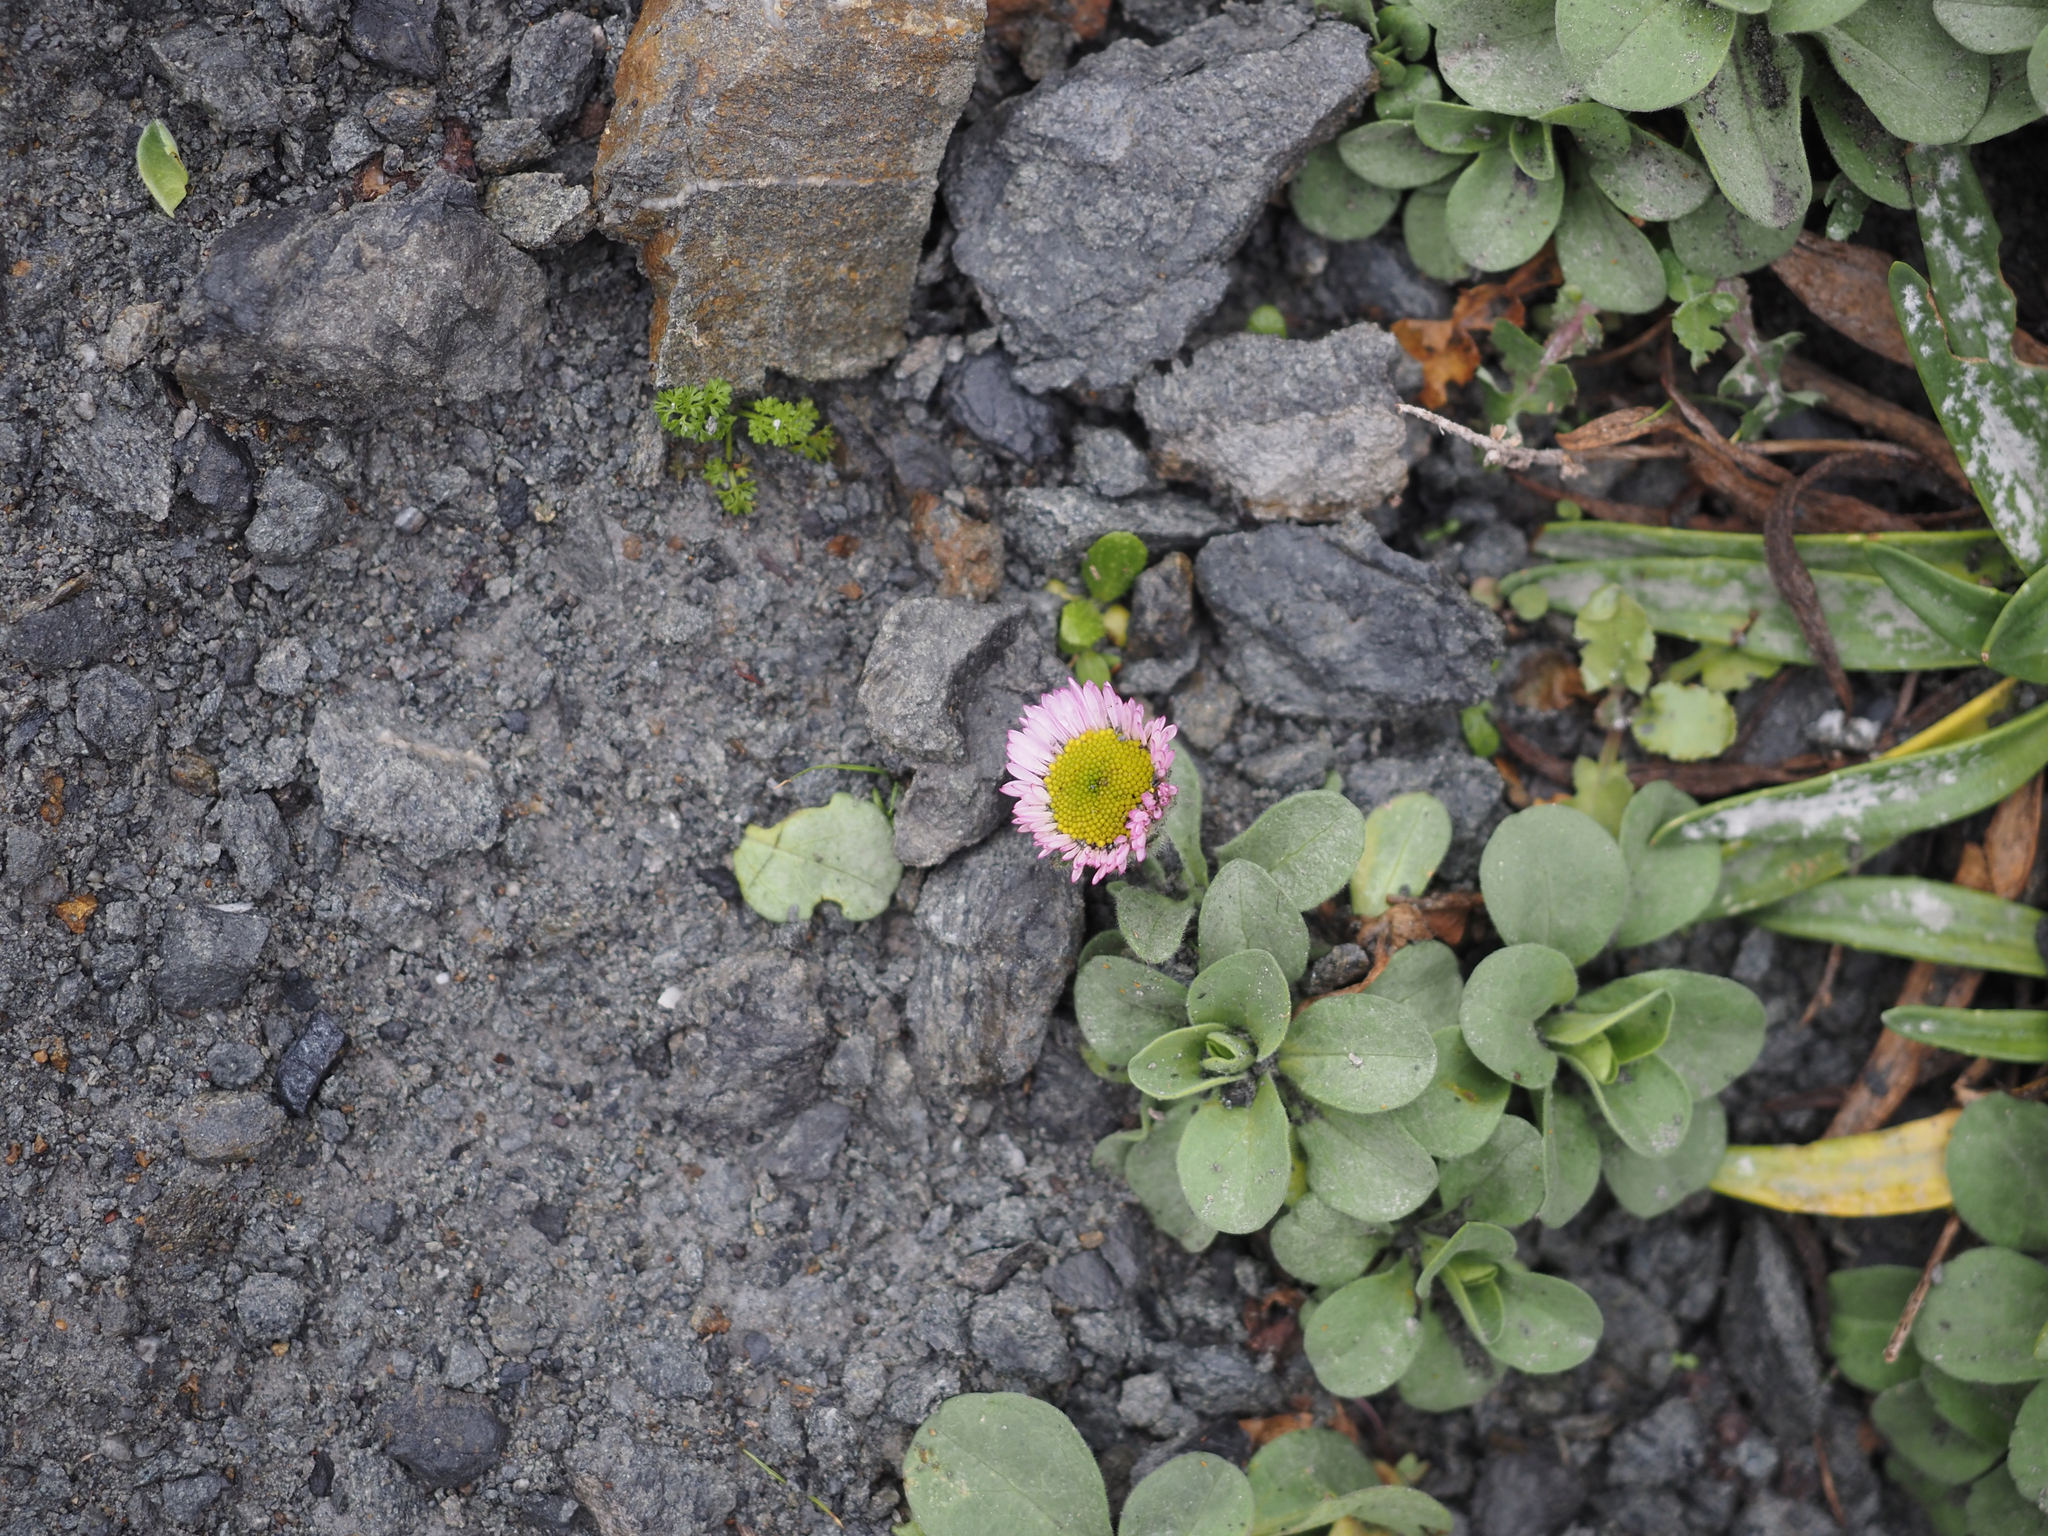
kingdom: Plantae
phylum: Tracheophyta
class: Magnoliopsida
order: Asterales
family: Asteraceae
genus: Erigeron
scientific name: Erigeron glaucus
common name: Seaside daisy
